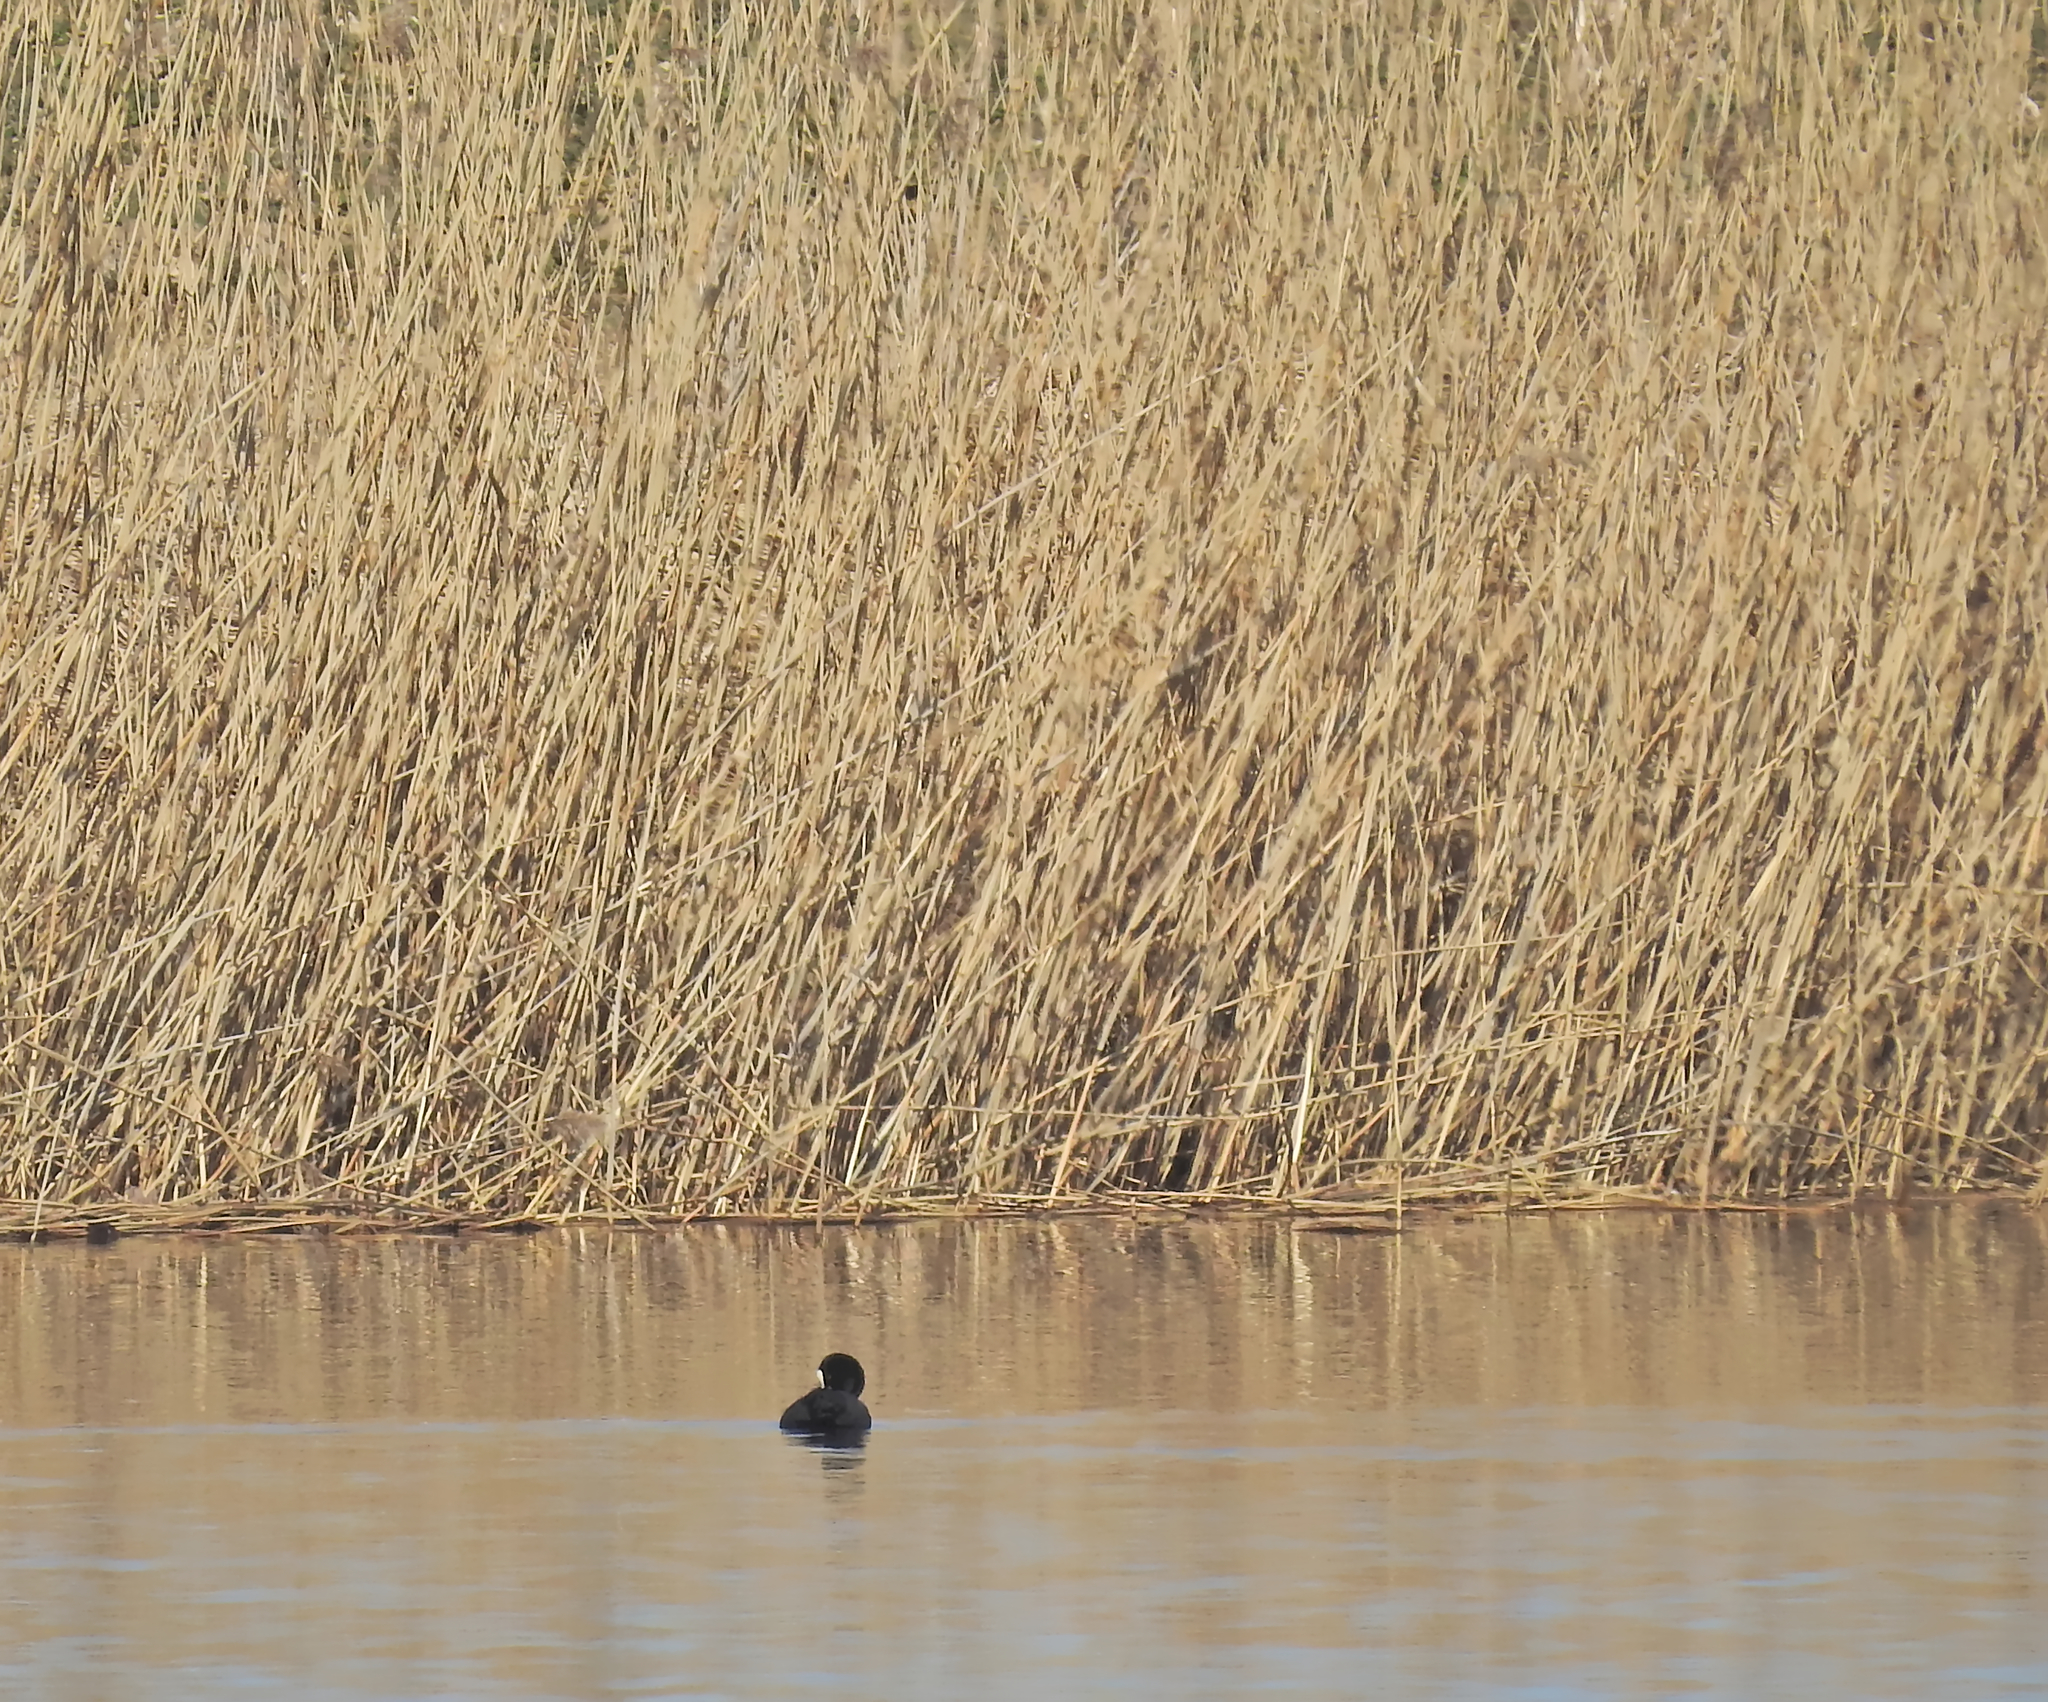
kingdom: Animalia
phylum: Chordata
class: Aves
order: Gruiformes
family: Rallidae
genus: Fulica
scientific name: Fulica atra
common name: Eurasian coot
